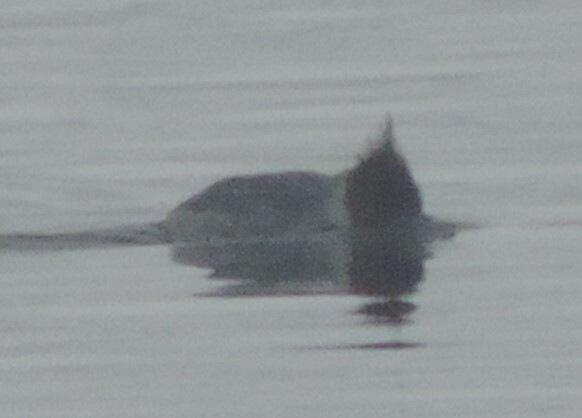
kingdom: Animalia
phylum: Chordata
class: Aves
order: Anseriformes
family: Anatidae
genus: Mergus
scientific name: Mergus merganser
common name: Common merganser
